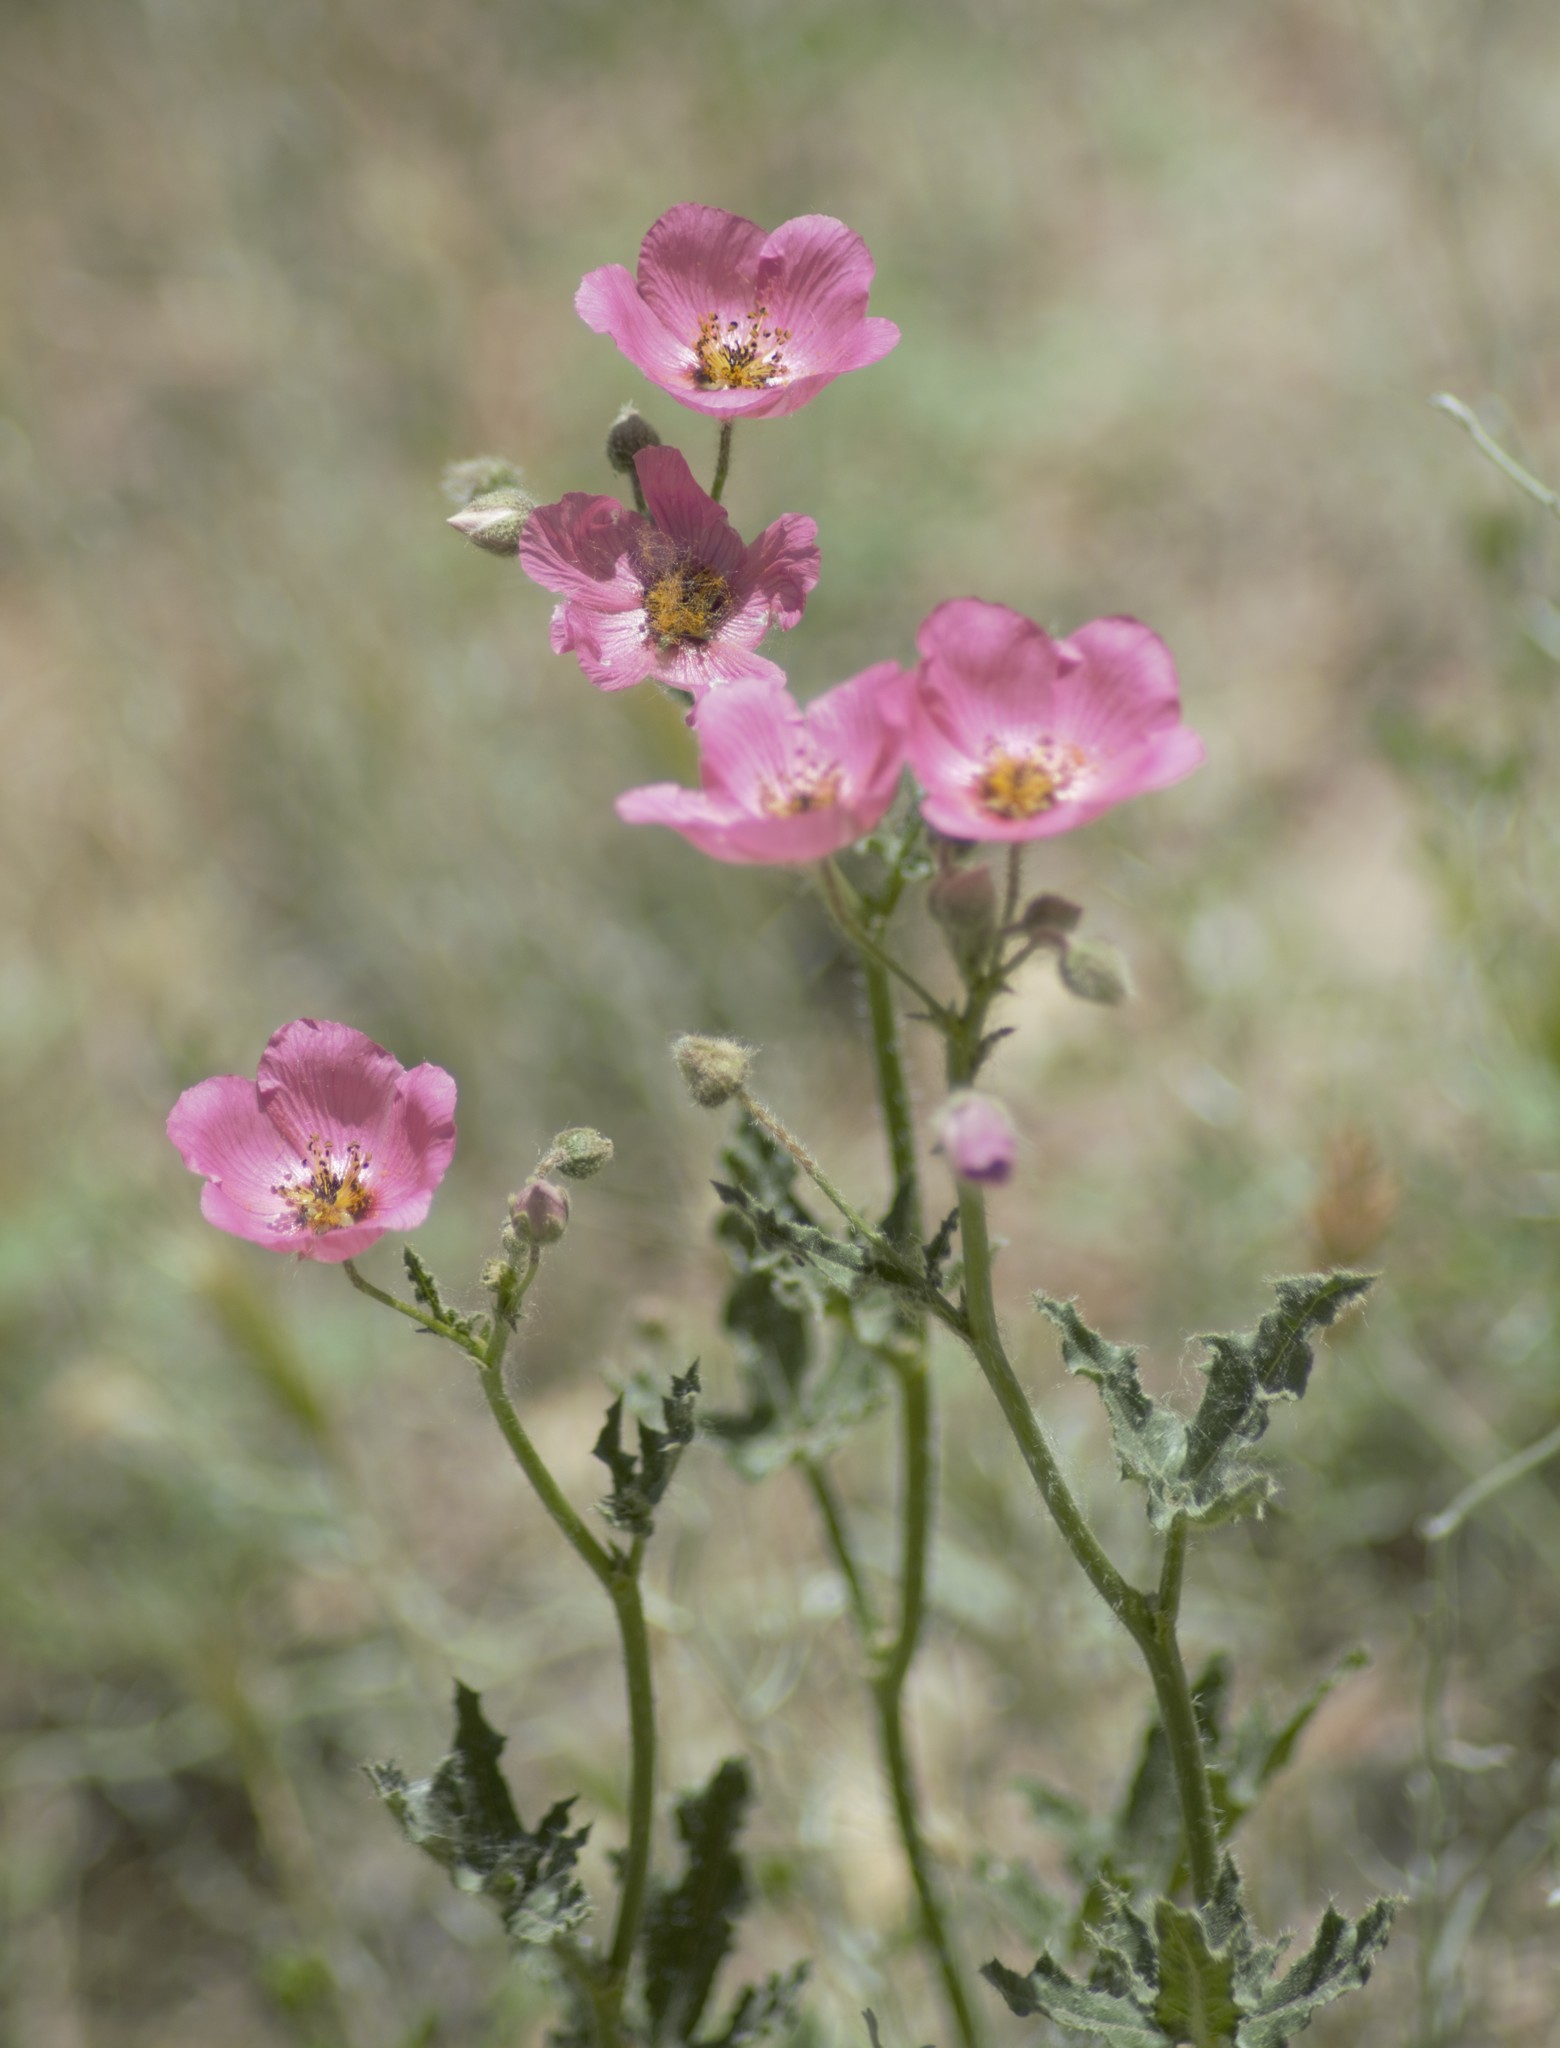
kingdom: Plantae
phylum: Tracheophyta
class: Magnoliopsida
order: Malvales
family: Malvaceae
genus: Lecanophora
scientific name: Lecanophora heterophylla
